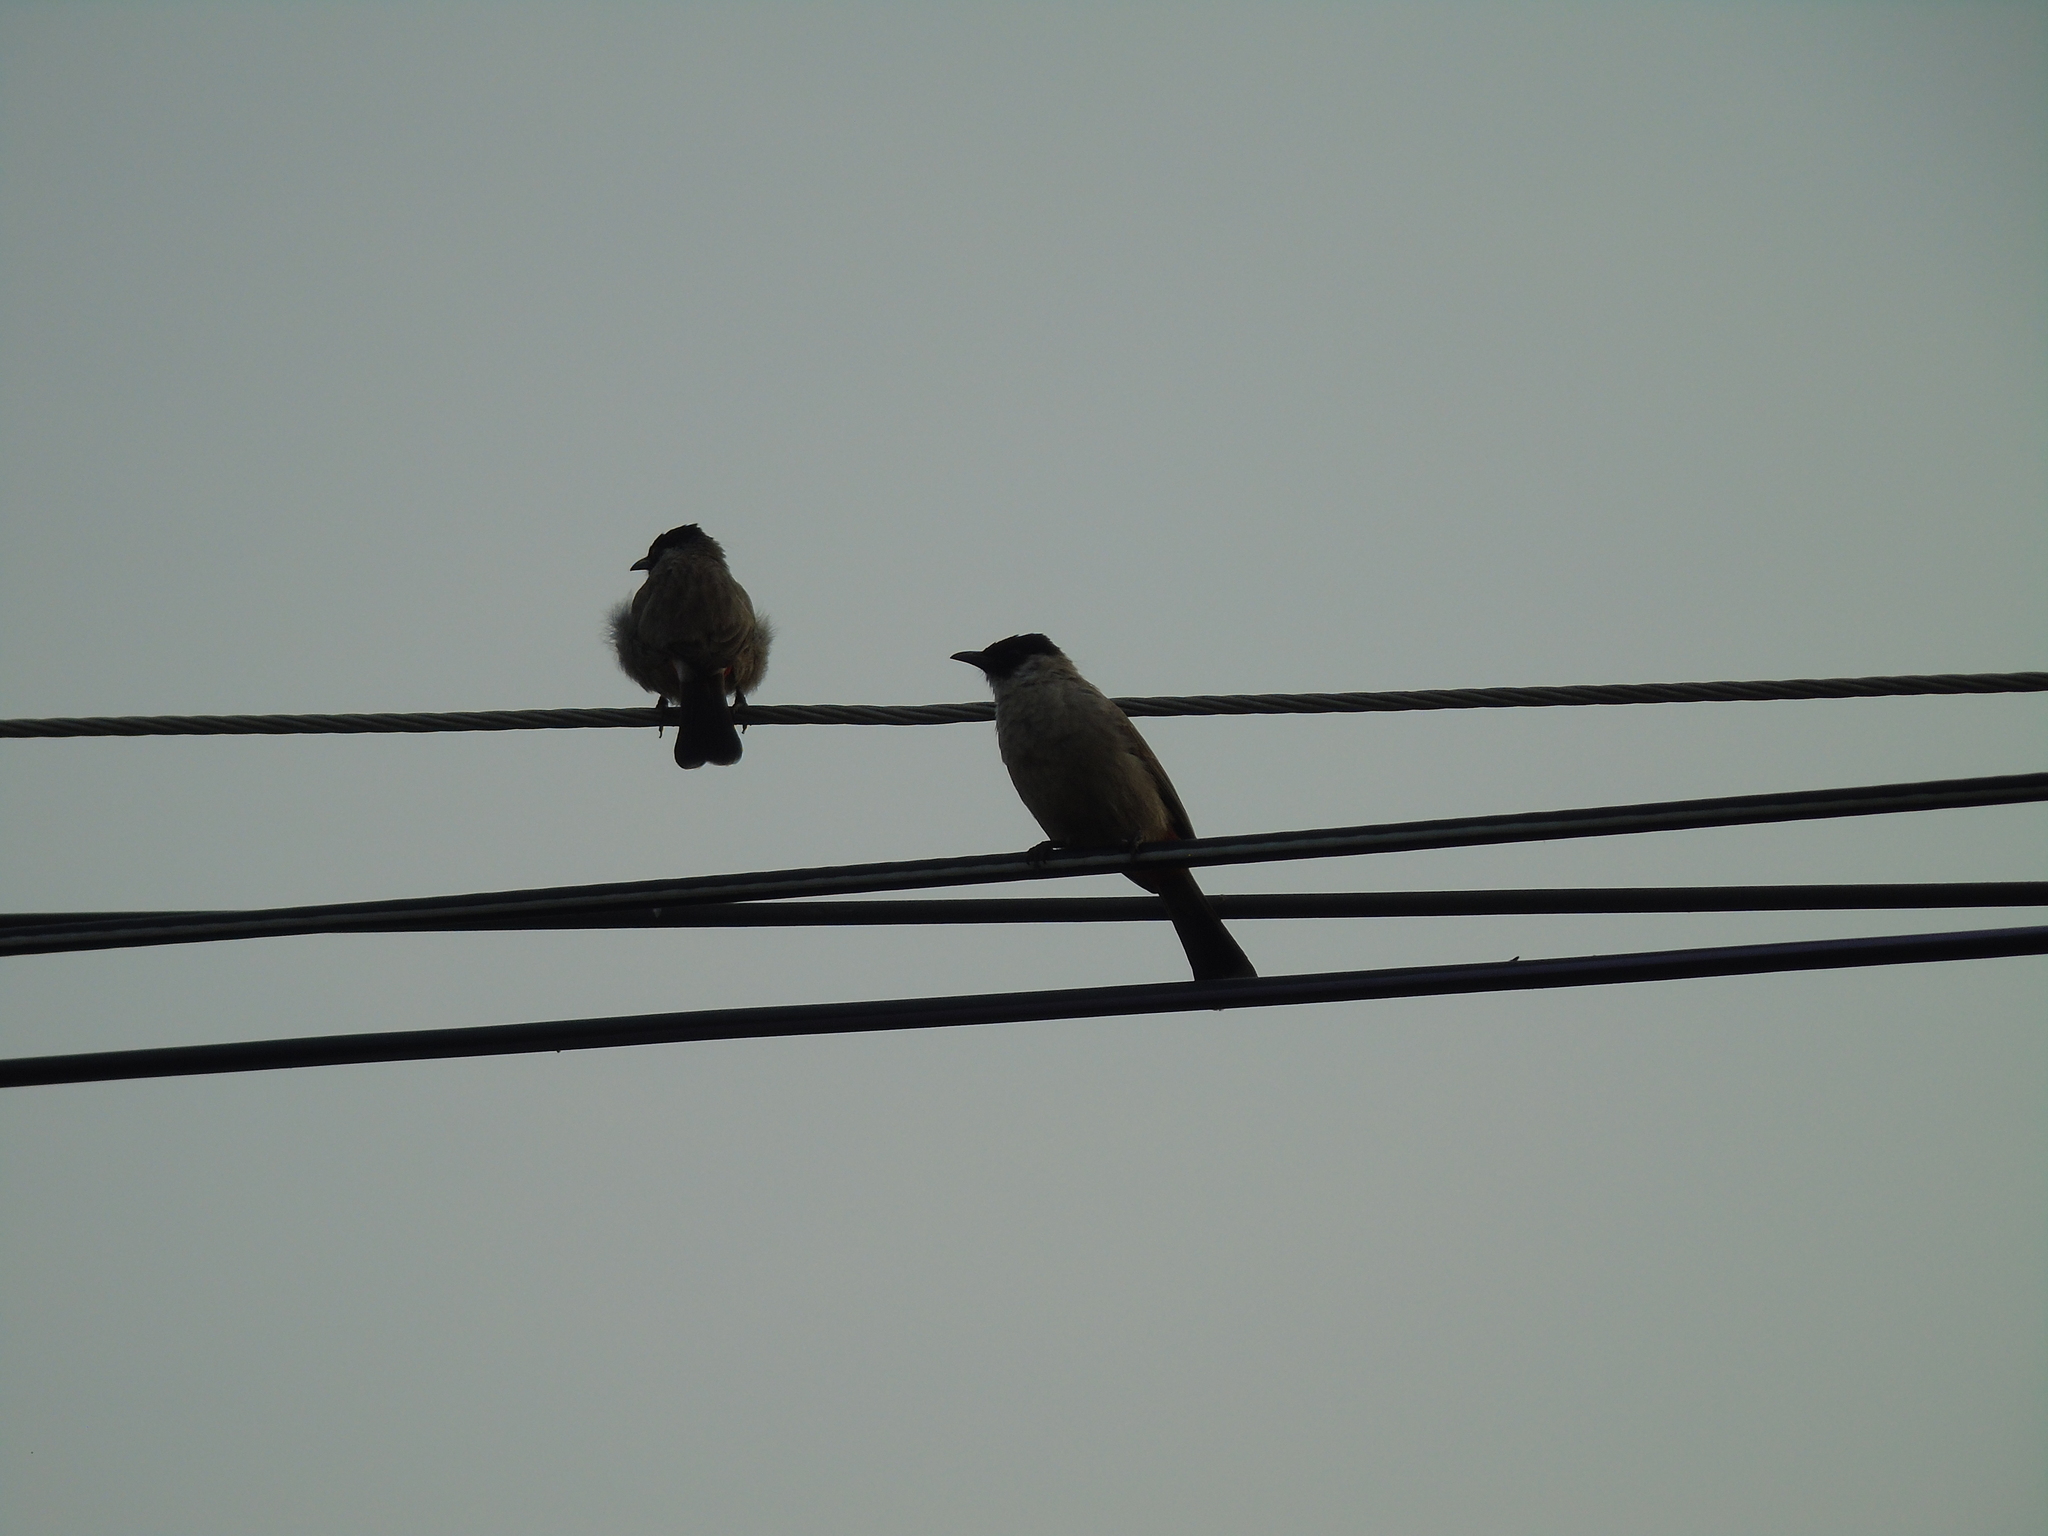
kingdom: Animalia
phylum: Chordata
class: Aves
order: Passeriformes
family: Pycnonotidae
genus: Pycnonotus
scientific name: Pycnonotus aurigaster
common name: Sooty-headed bulbul
